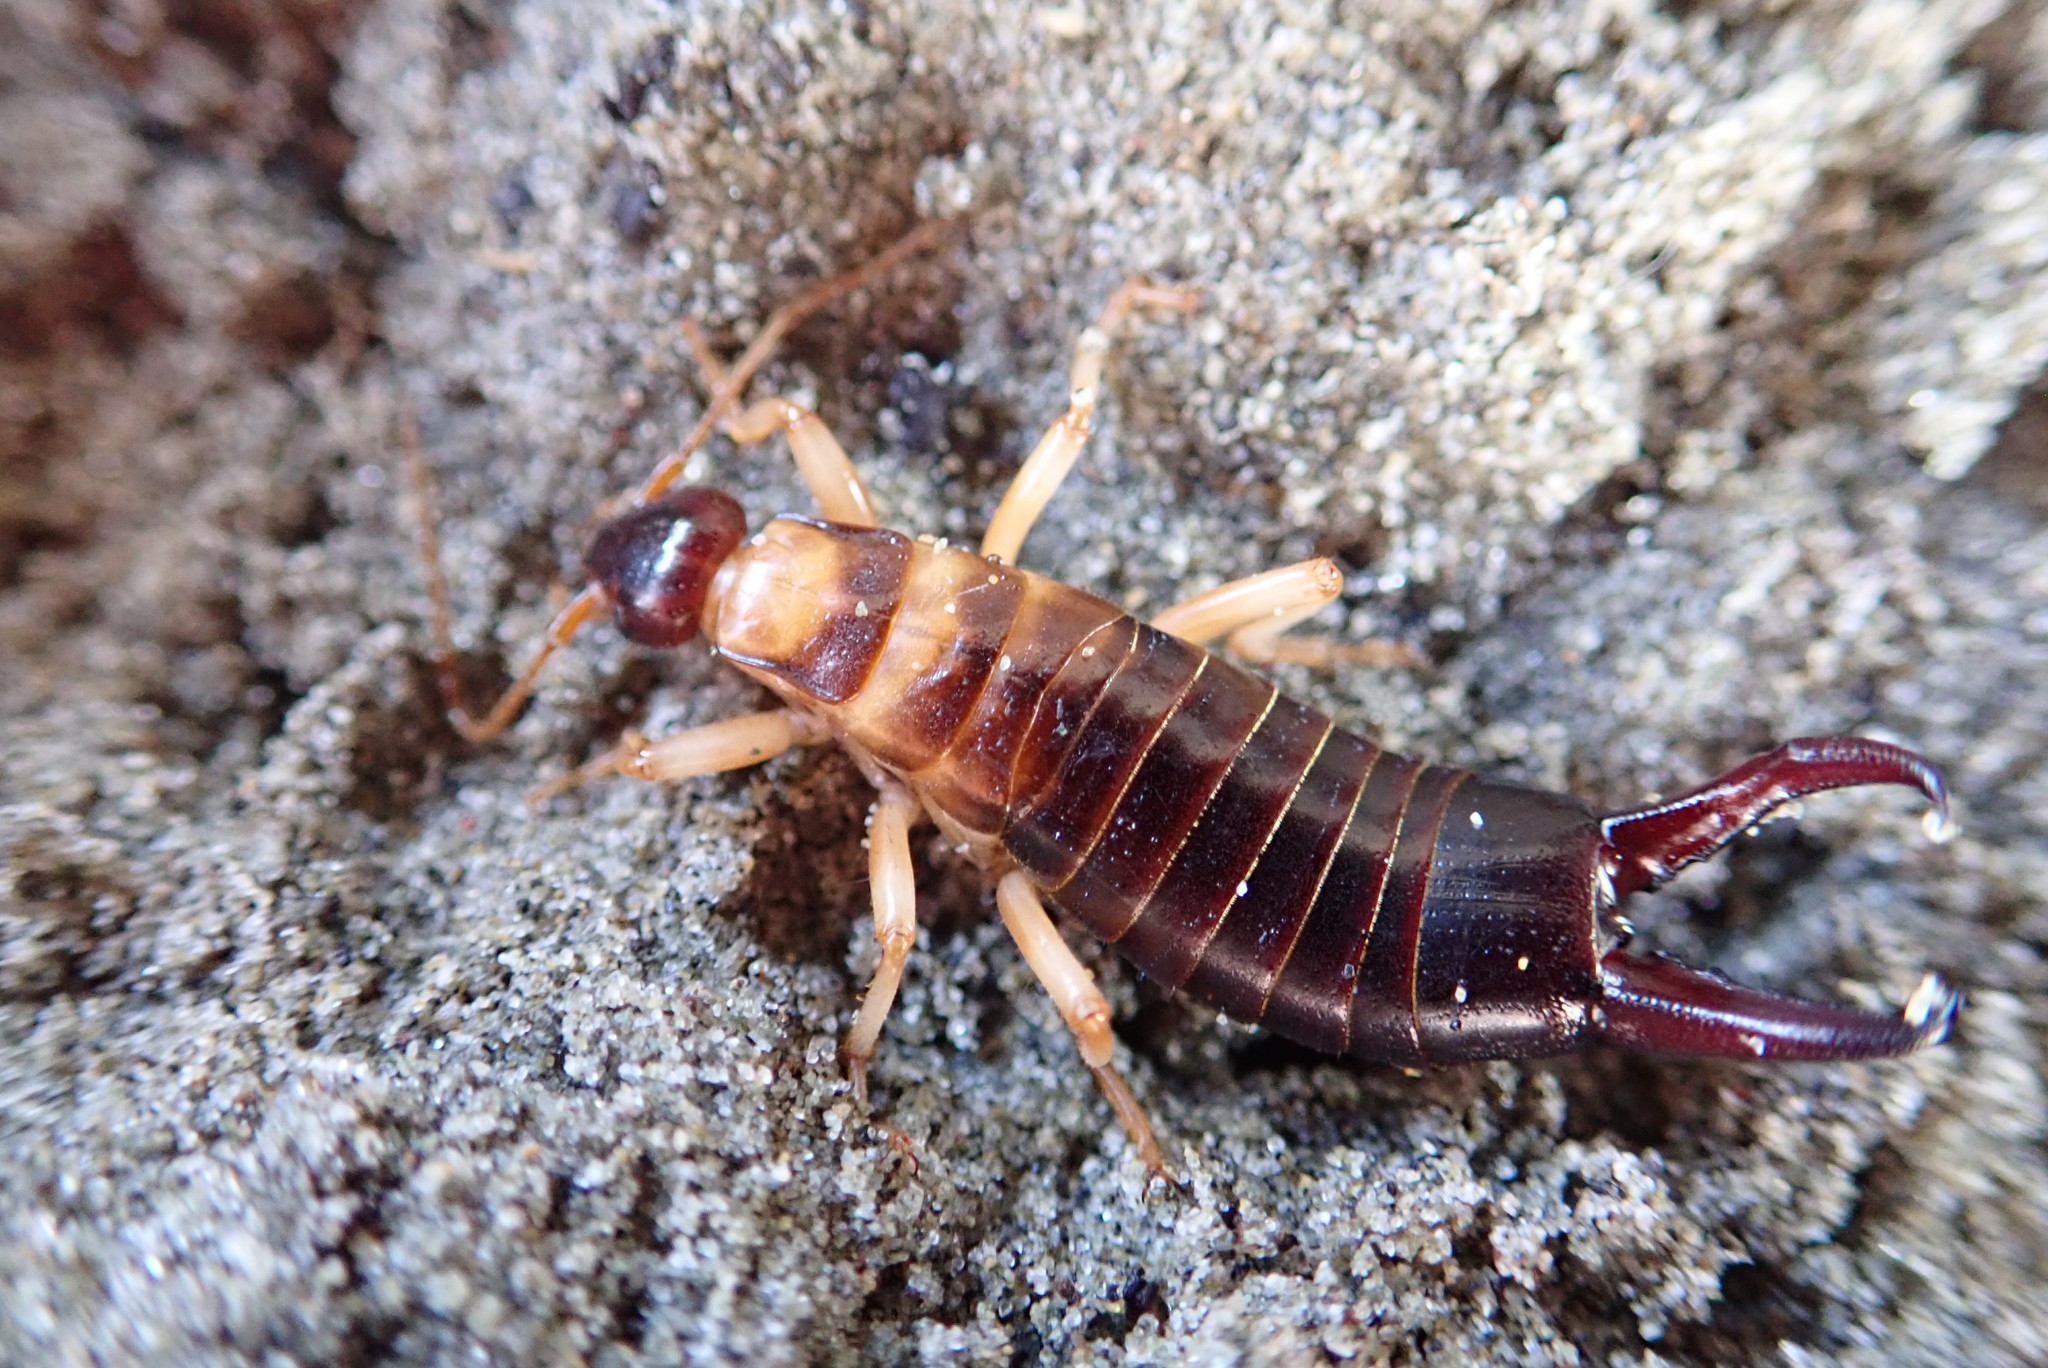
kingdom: Animalia
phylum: Arthropoda
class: Insecta
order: Dermaptera
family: Anisolabididae
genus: Anisolabis
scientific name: Anisolabis littorea
